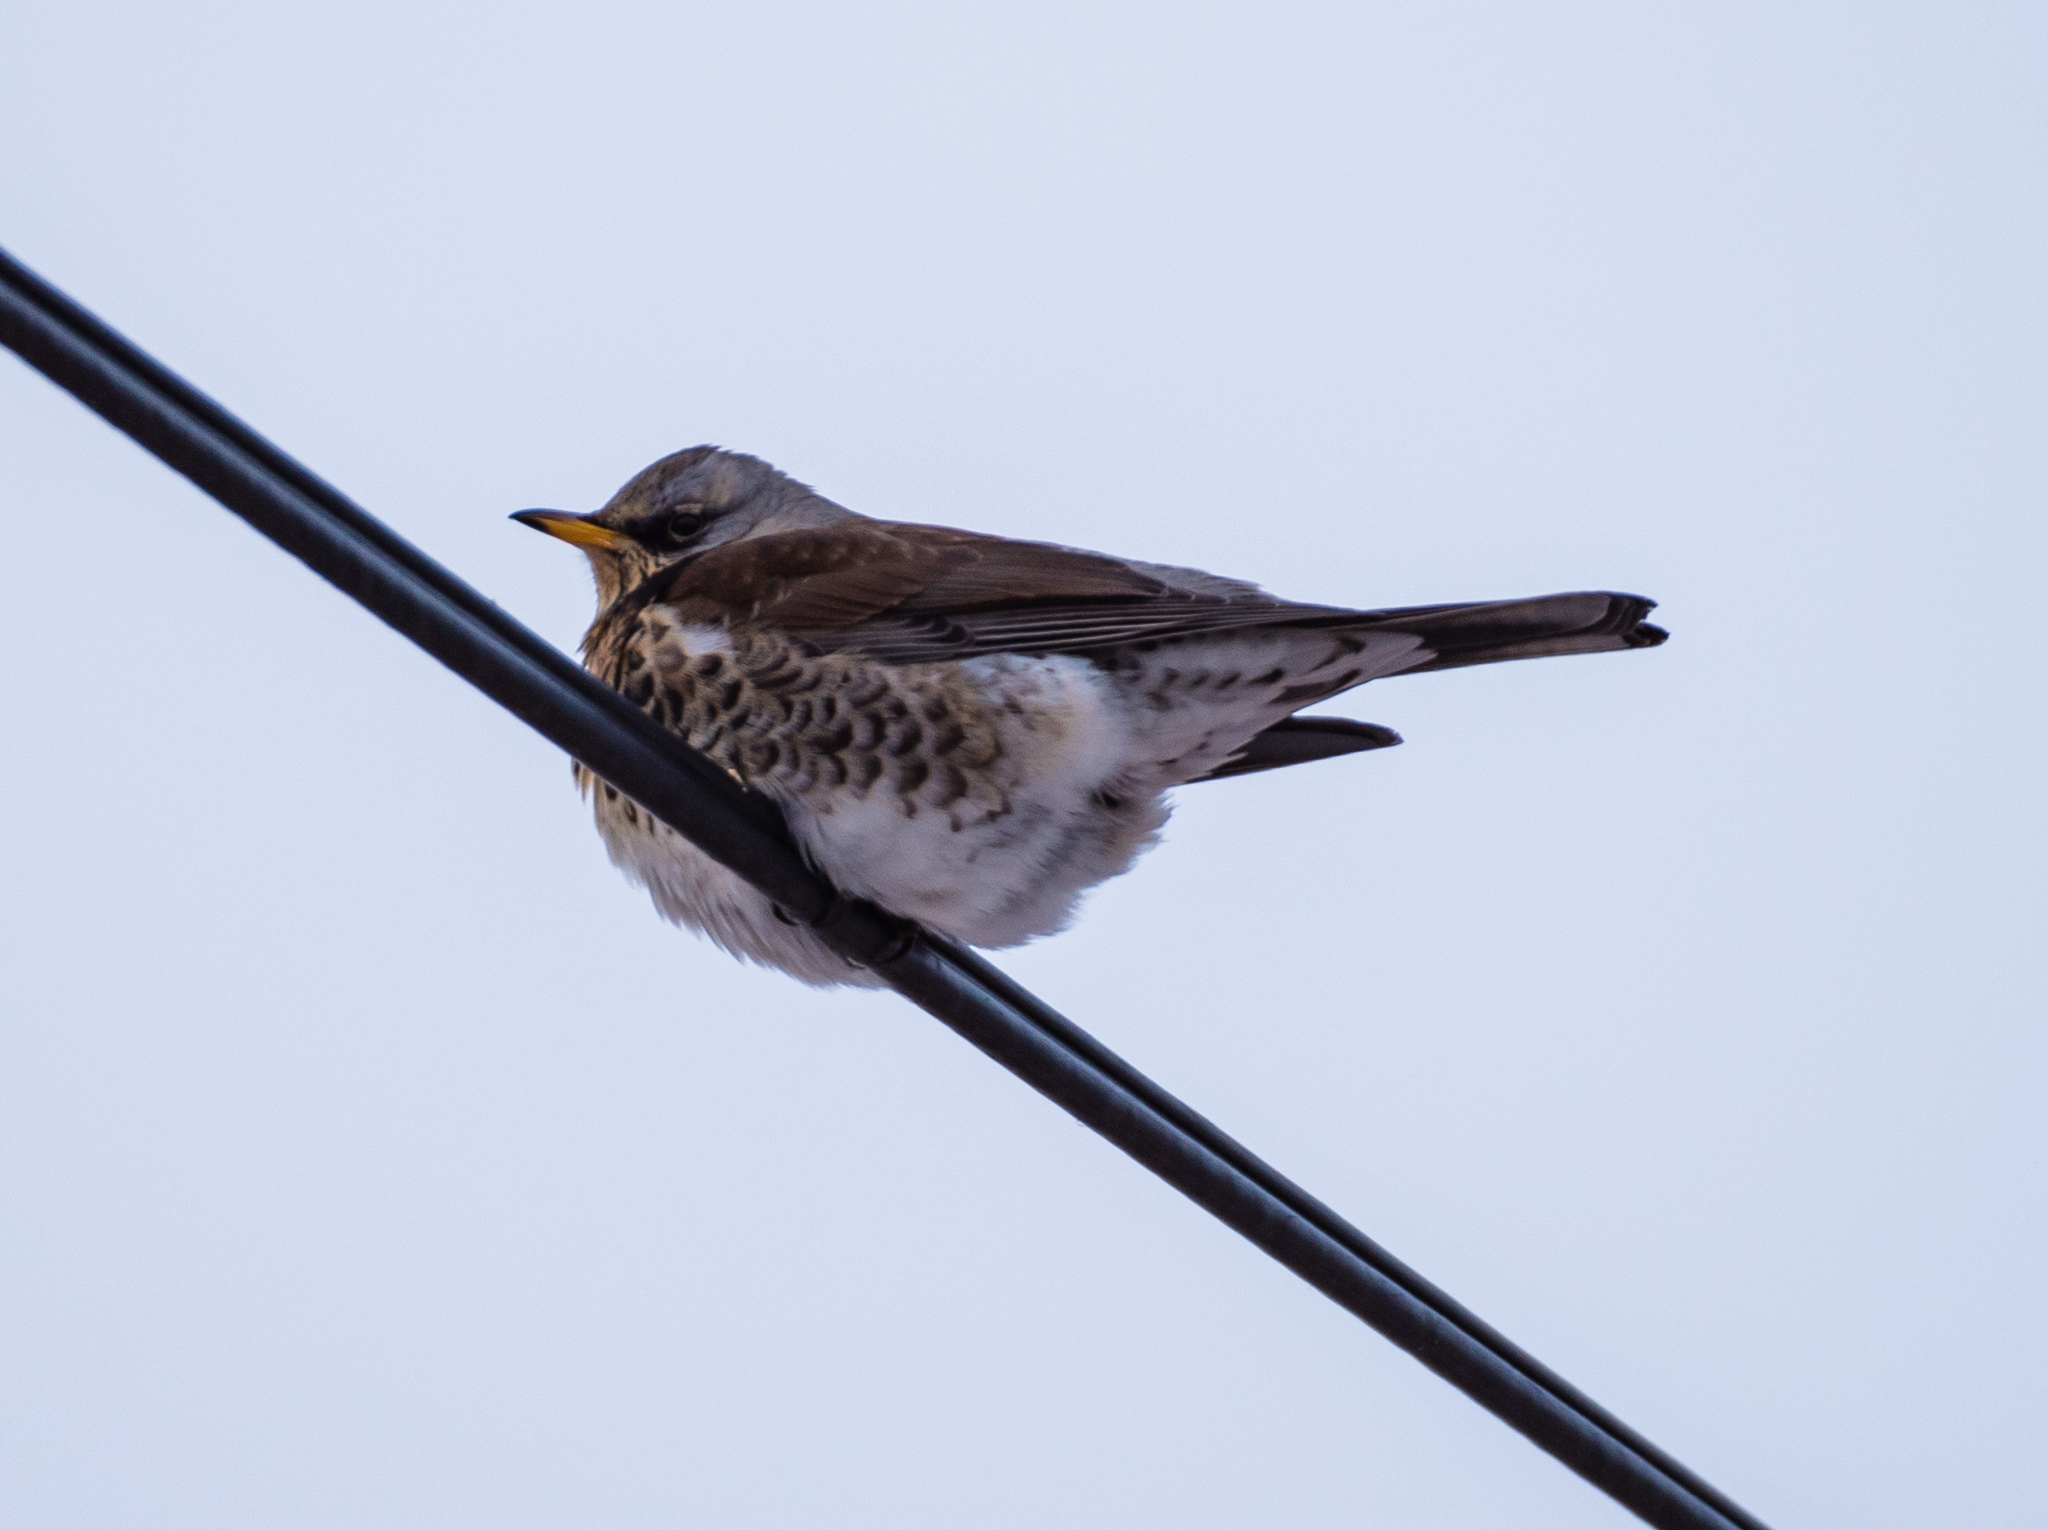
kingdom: Animalia
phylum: Chordata
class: Aves
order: Passeriformes
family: Turdidae
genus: Turdus
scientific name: Turdus pilaris
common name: Fieldfare
